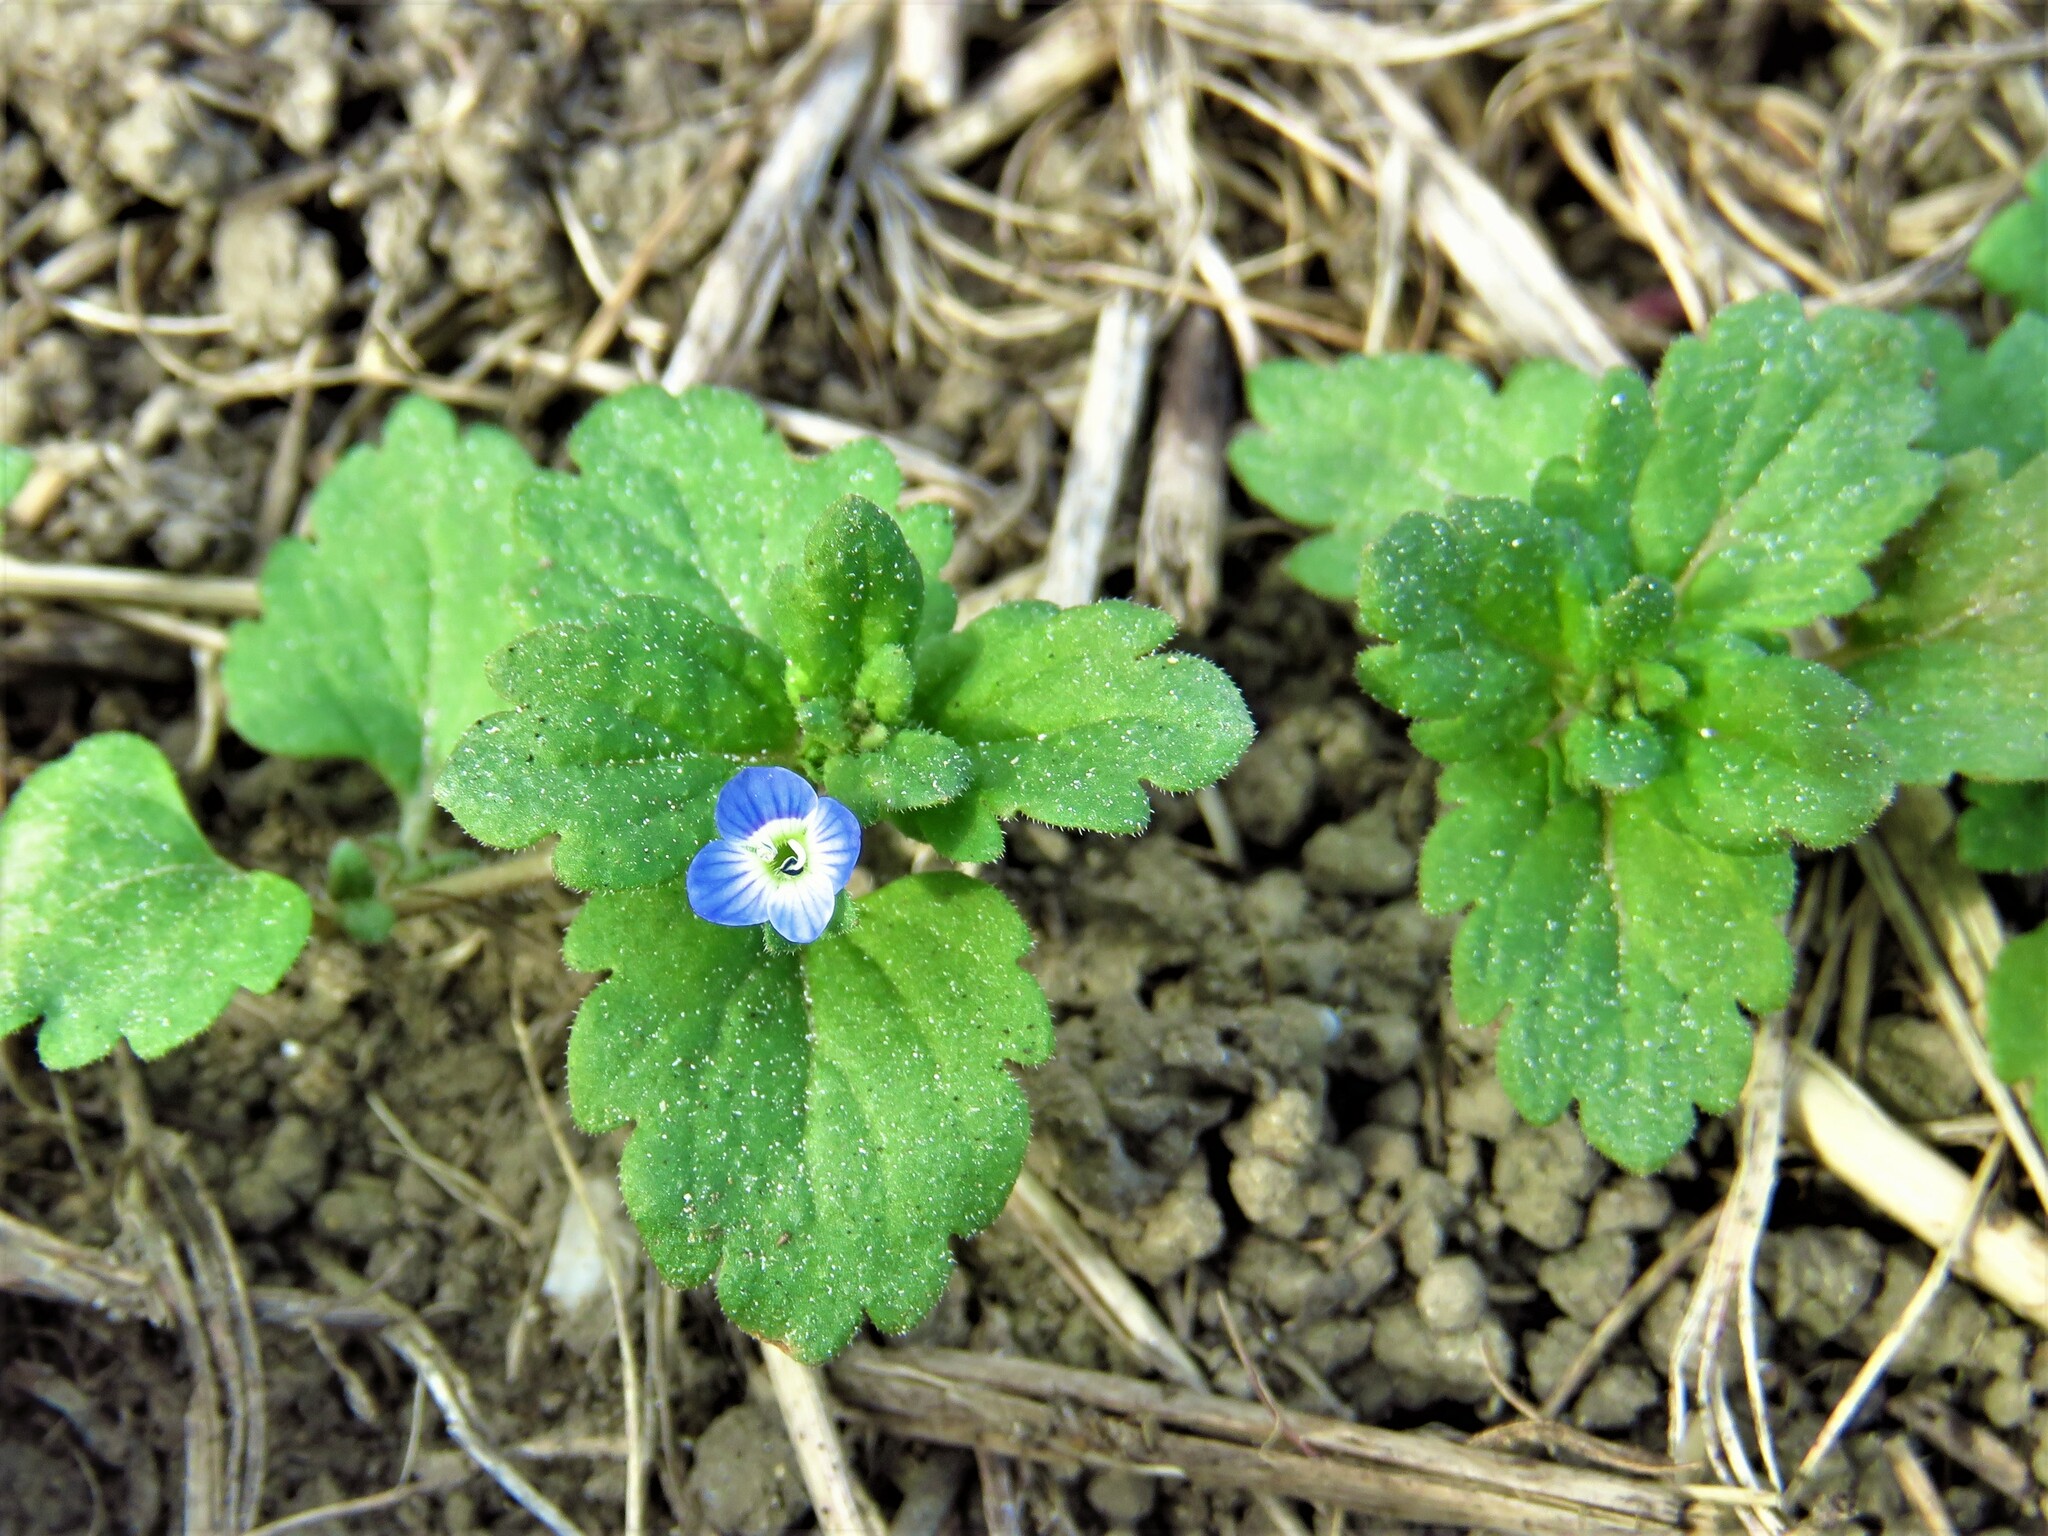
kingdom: Plantae
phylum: Tracheophyta
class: Magnoliopsida
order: Lamiales
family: Plantaginaceae
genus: Veronica
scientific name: Veronica persica
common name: Common field-speedwell
